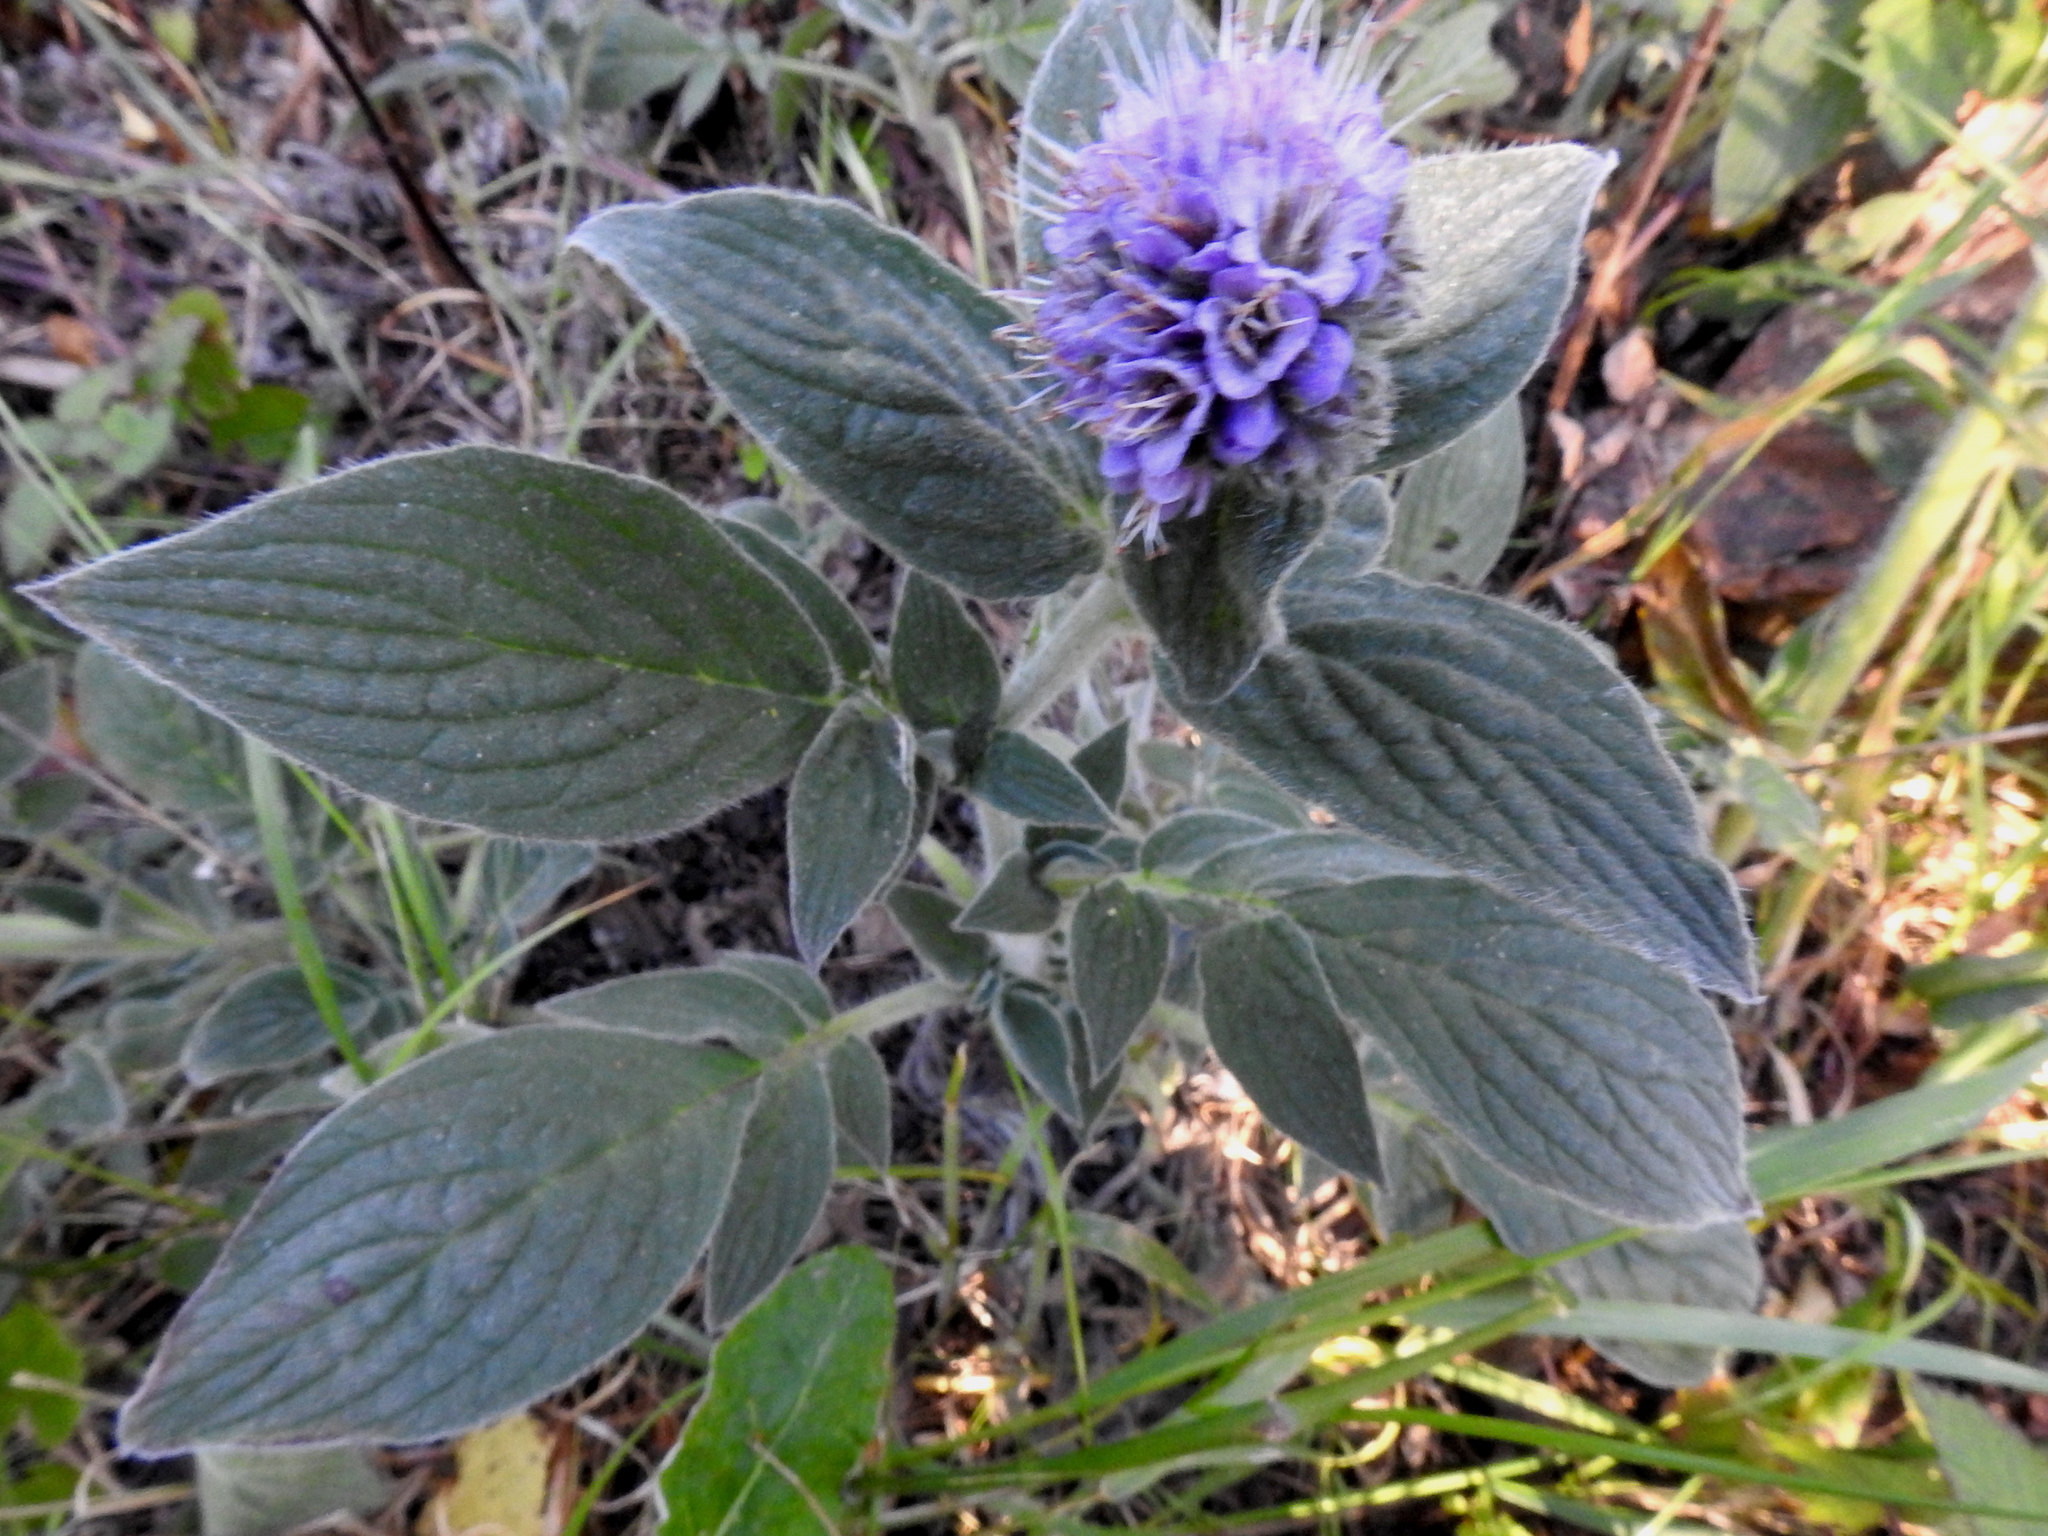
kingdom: Plantae
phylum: Tracheophyta
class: Magnoliopsida
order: Boraginales
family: Hydrophyllaceae
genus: Phacelia
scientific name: Phacelia californica
